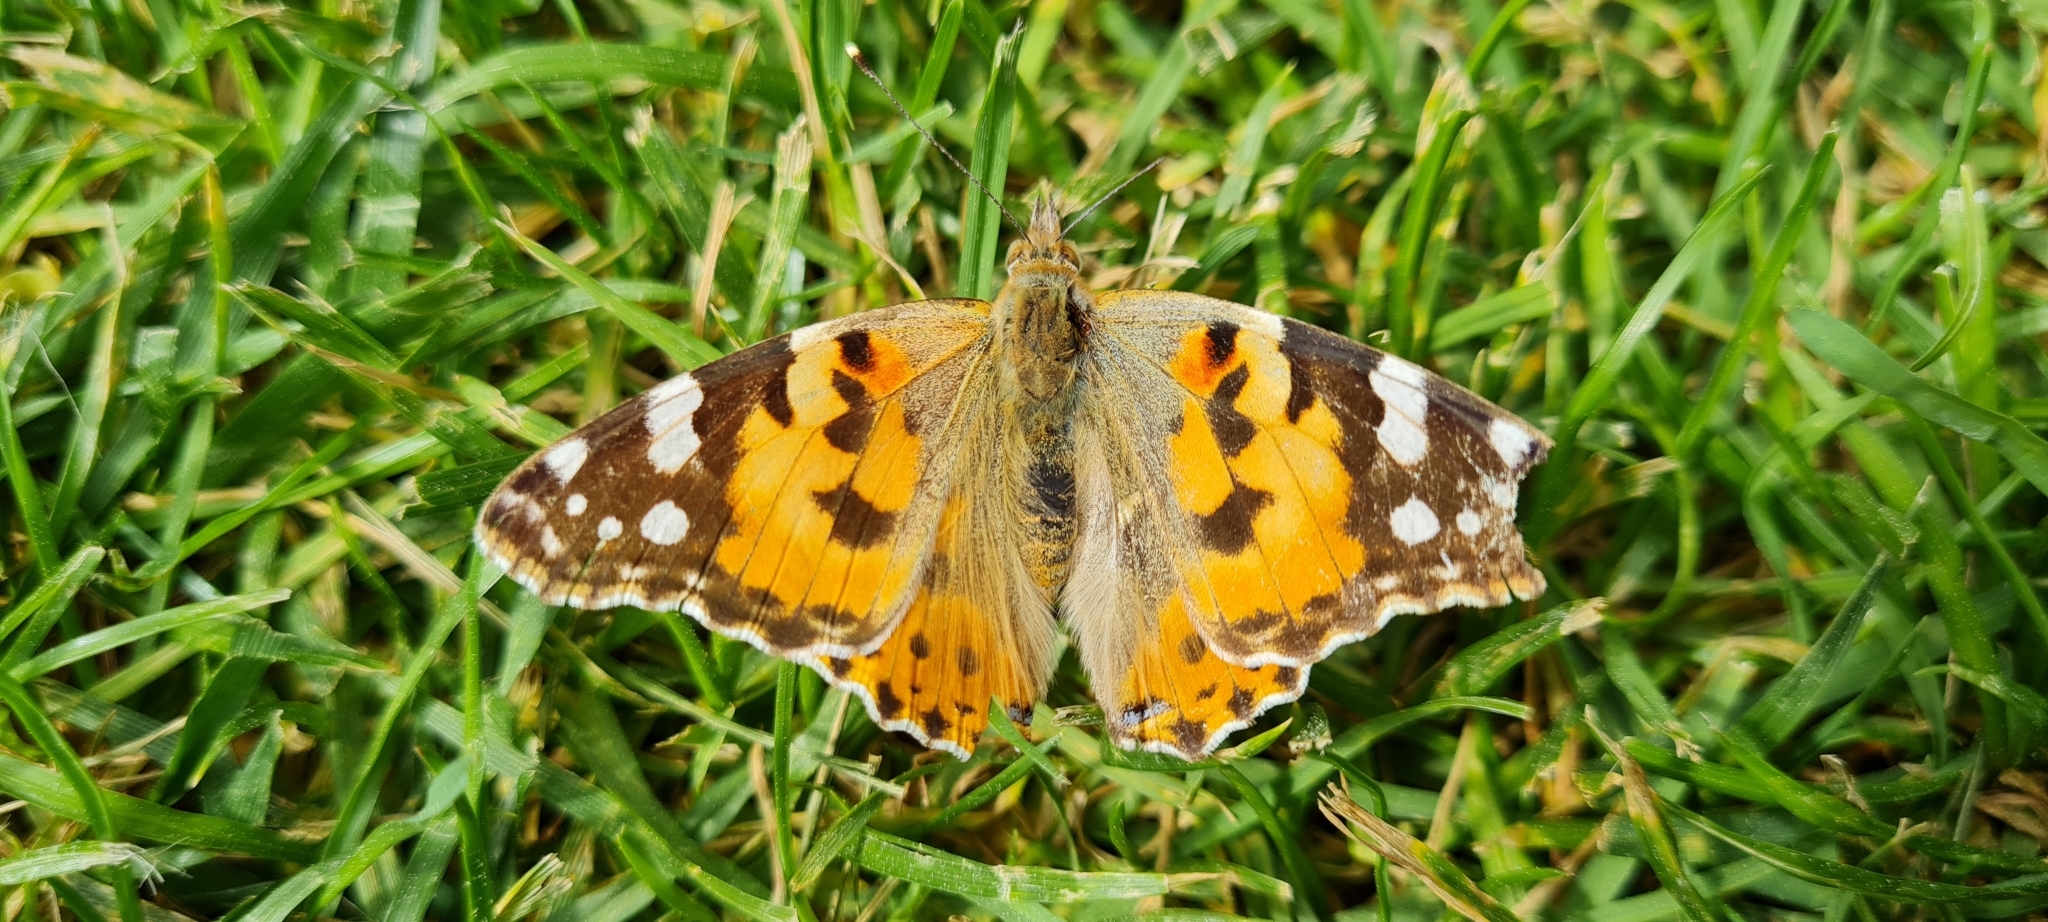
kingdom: Animalia
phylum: Arthropoda
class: Insecta
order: Lepidoptera
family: Nymphalidae
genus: Vanessa
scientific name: Vanessa cardui
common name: Painted lady
